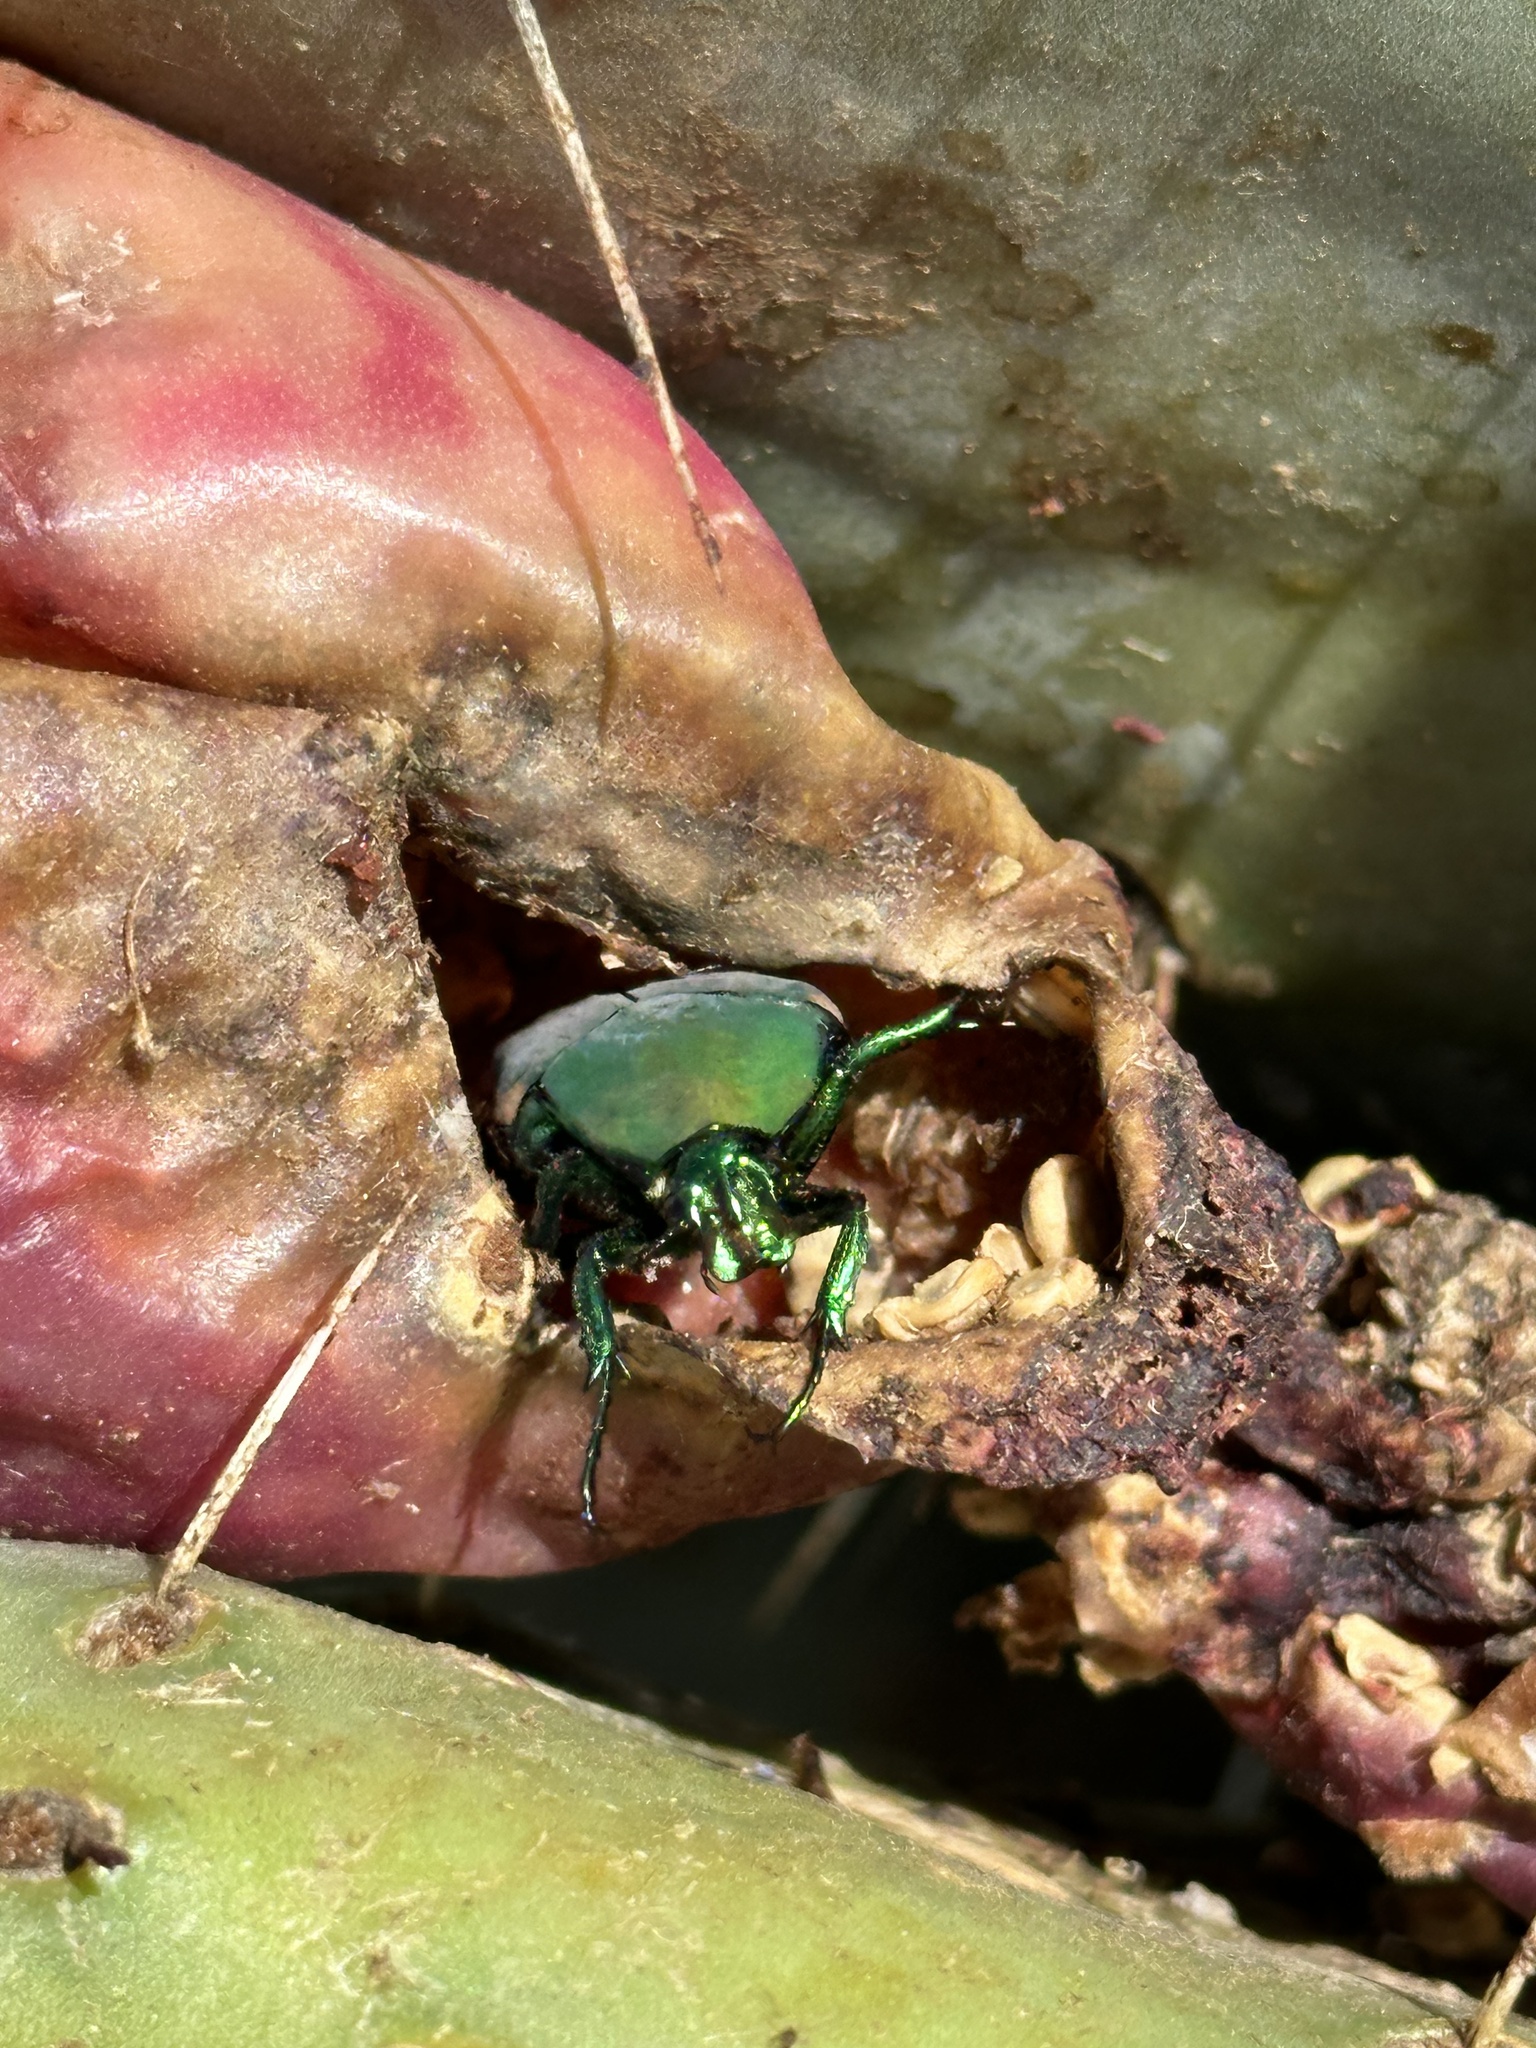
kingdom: Animalia
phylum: Arthropoda
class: Insecta
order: Coleoptera
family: Scarabaeidae
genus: Cotinis
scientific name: Cotinis mutabilis
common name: Figeater beetle
